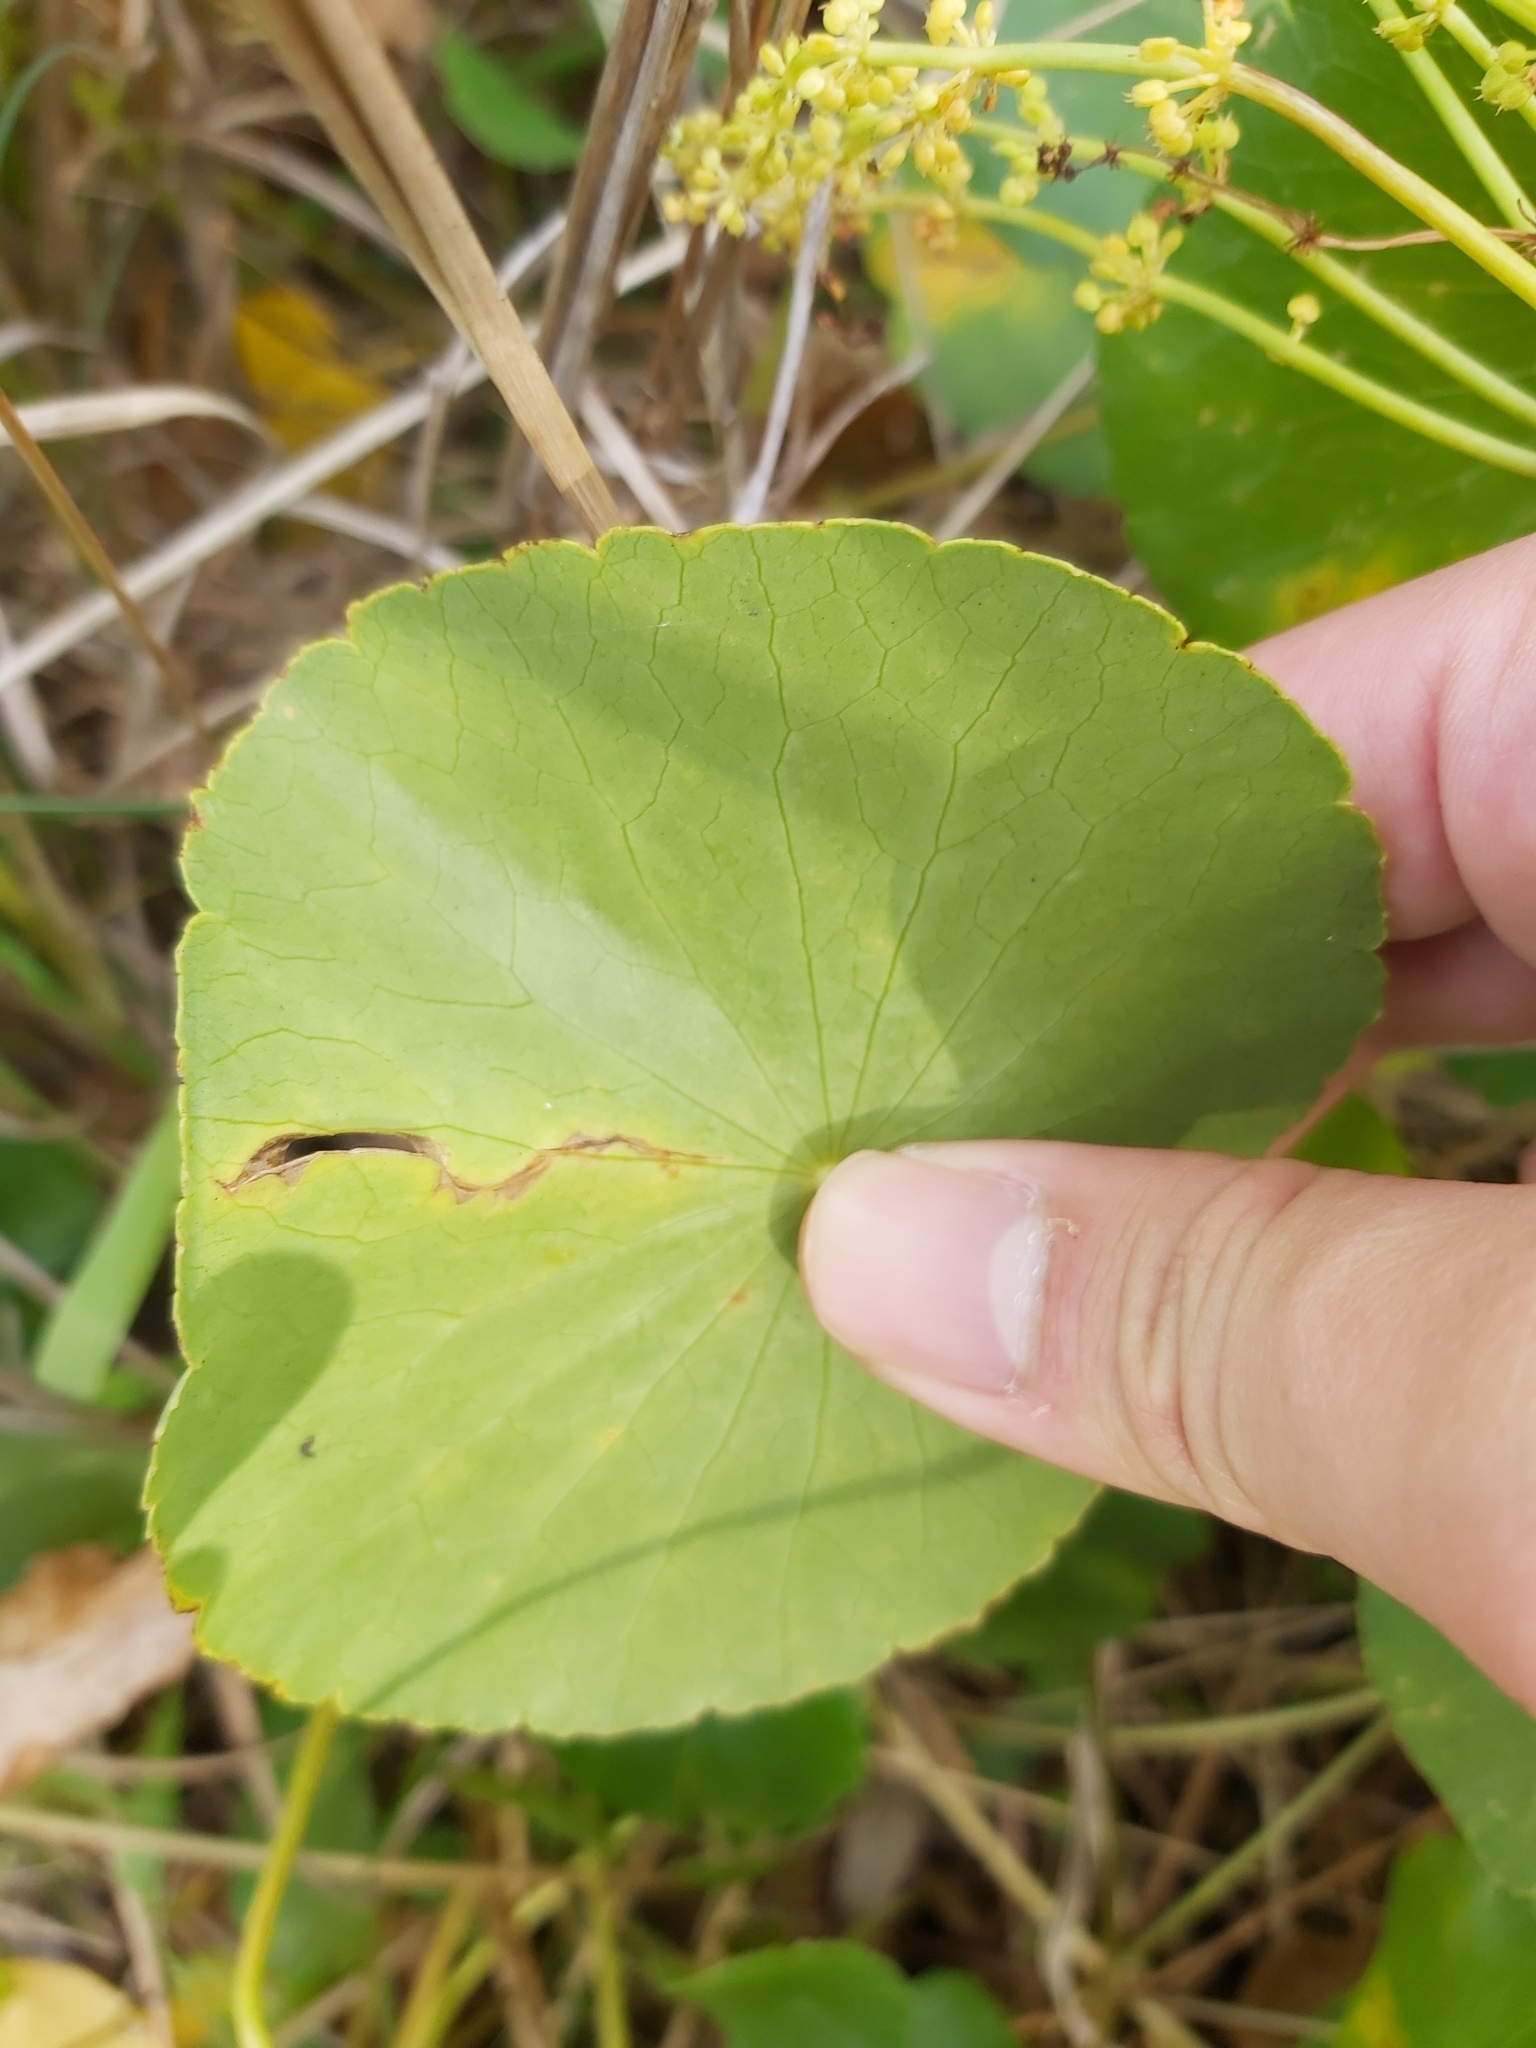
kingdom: Plantae
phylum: Tracheophyta
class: Magnoliopsida
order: Apiales
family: Araliaceae
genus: Hydrocotyle
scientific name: Hydrocotyle bonariensis
